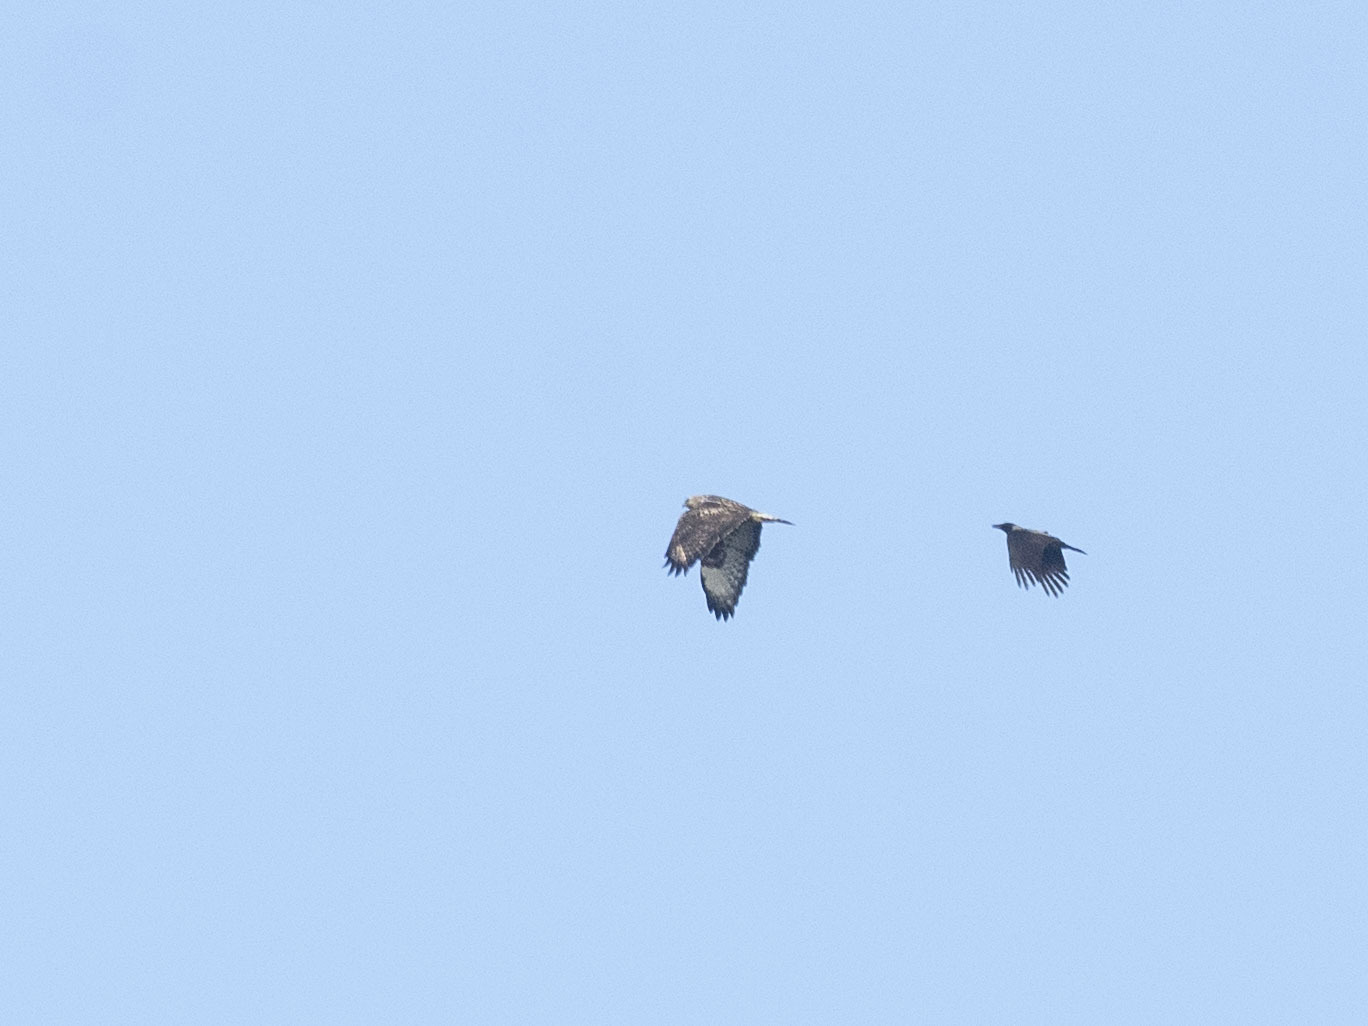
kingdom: Animalia
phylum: Chordata
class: Aves
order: Accipitriformes
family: Accipitridae
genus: Buteo
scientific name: Buteo lagopus
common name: Rough-legged buzzard
